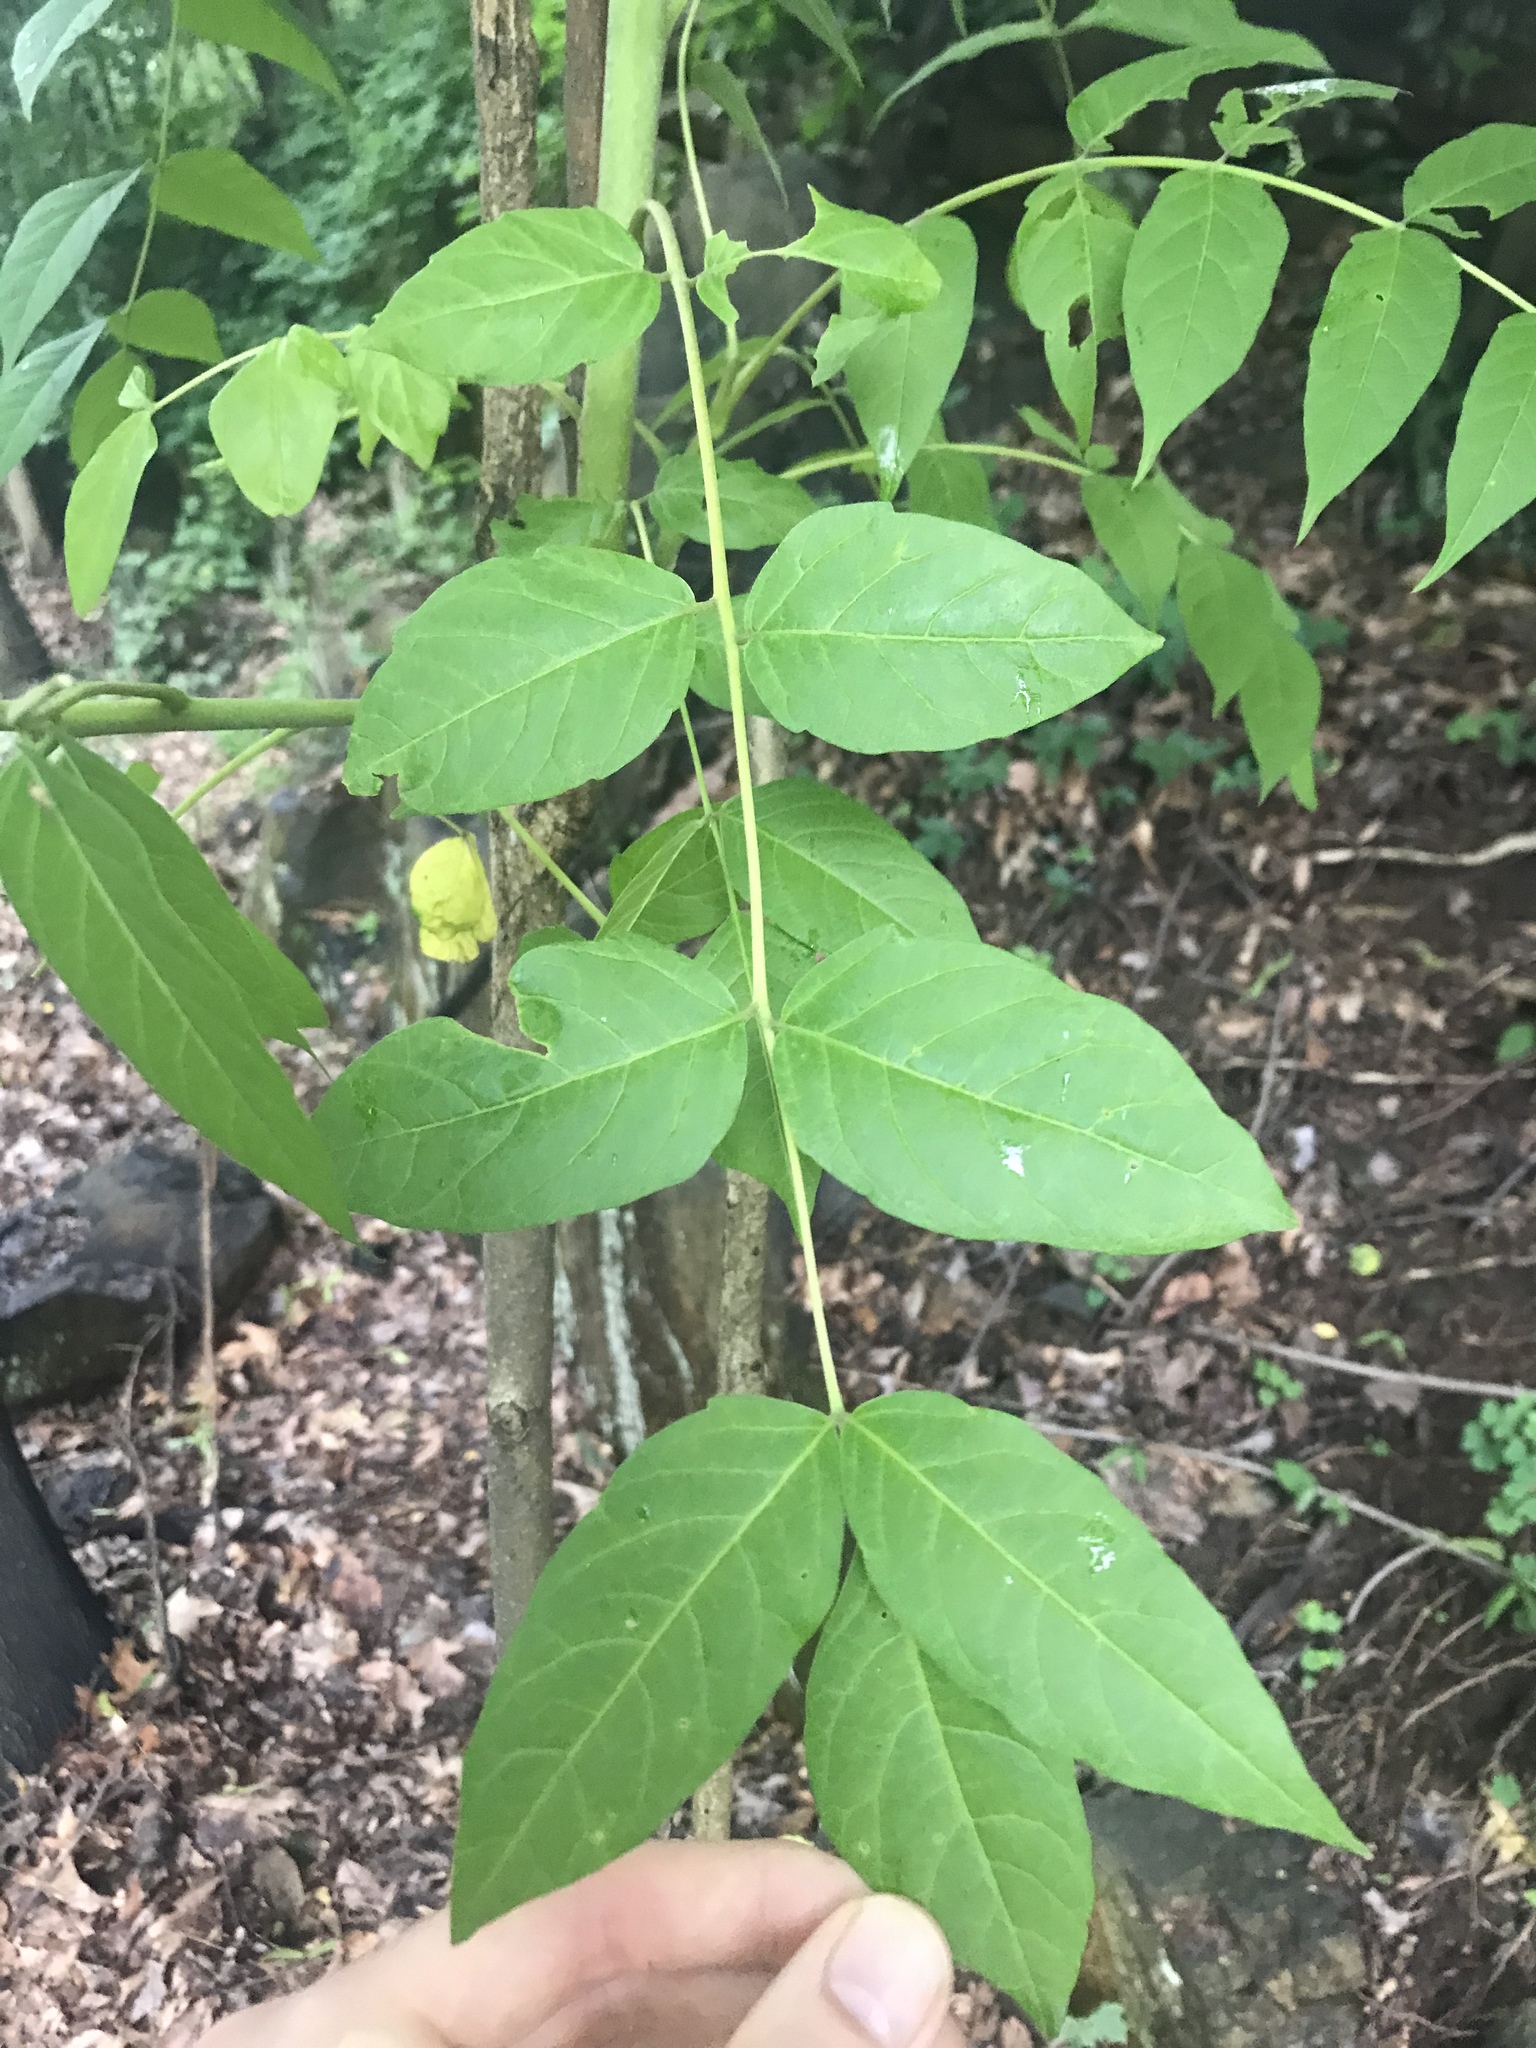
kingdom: Plantae
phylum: Tracheophyta
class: Magnoliopsida
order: Sapindales
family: Simaroubaceae
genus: Ailanthus
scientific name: Ailanthus altissima
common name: Tree-of-heaven
